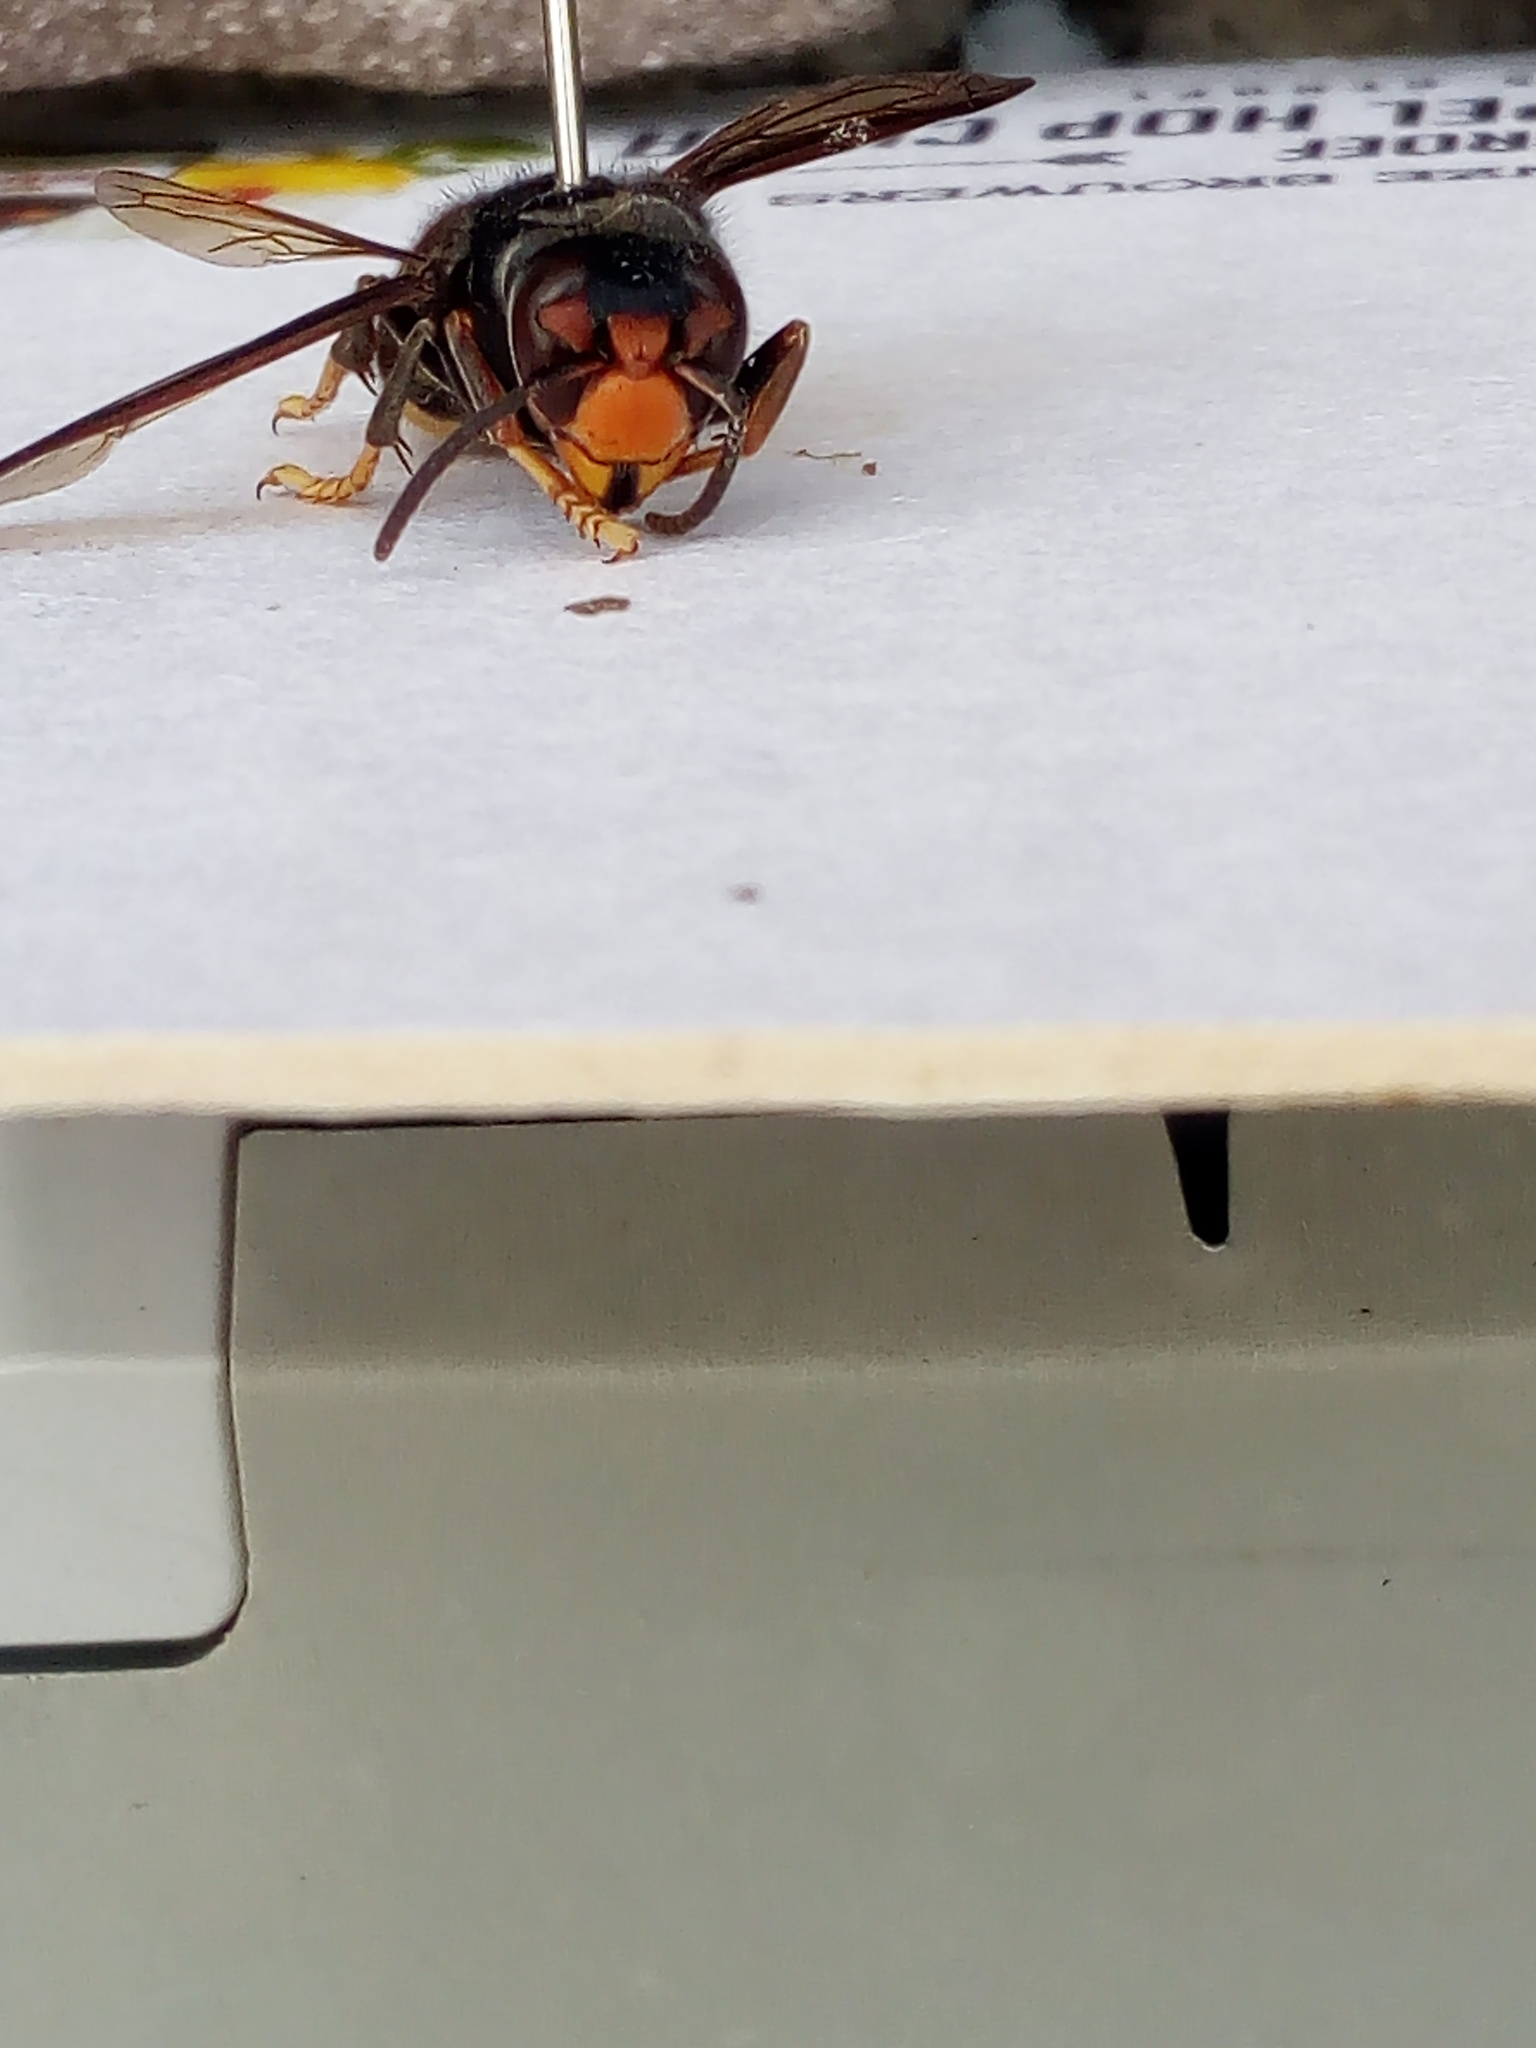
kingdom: Animalia
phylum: Arthropoda
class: Insecta
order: Hymenoptera
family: Vespidae
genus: Vespa
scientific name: Vespa velutina
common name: Asian hornet
